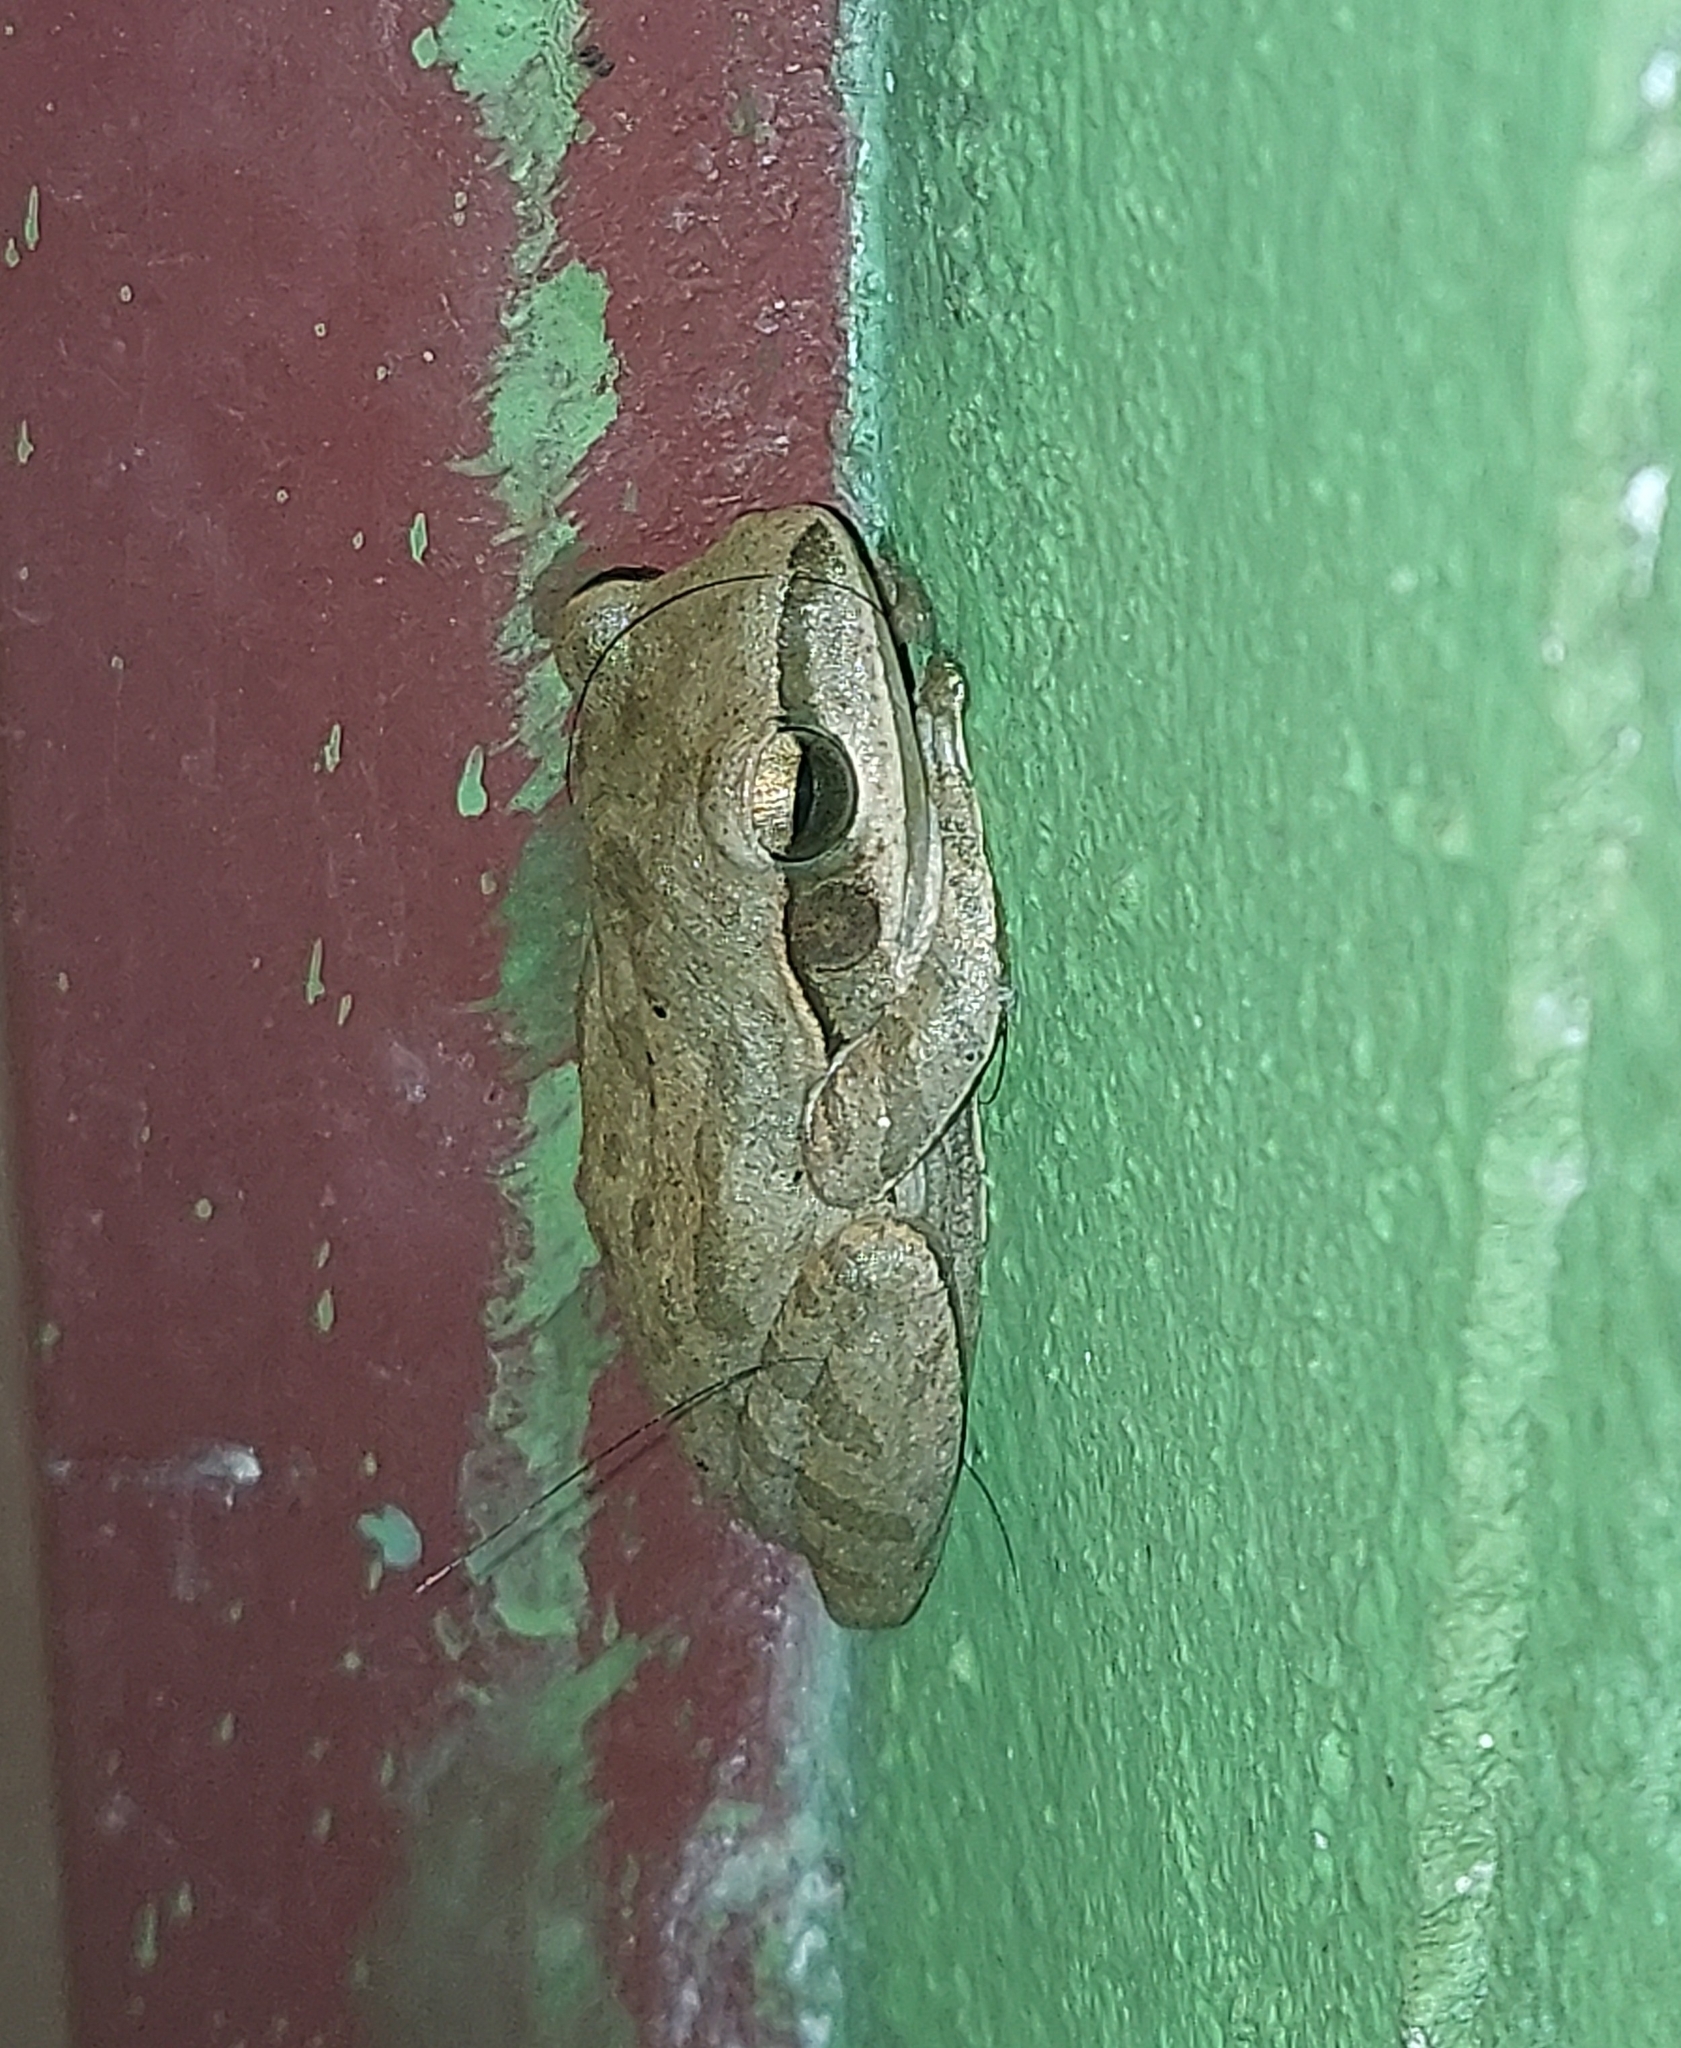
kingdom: Animalia
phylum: Chordata
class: Amphibia
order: Anura
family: Rhacophoridae
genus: Polypedates
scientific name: Polypedates maculatus
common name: Himalayan tree frog
